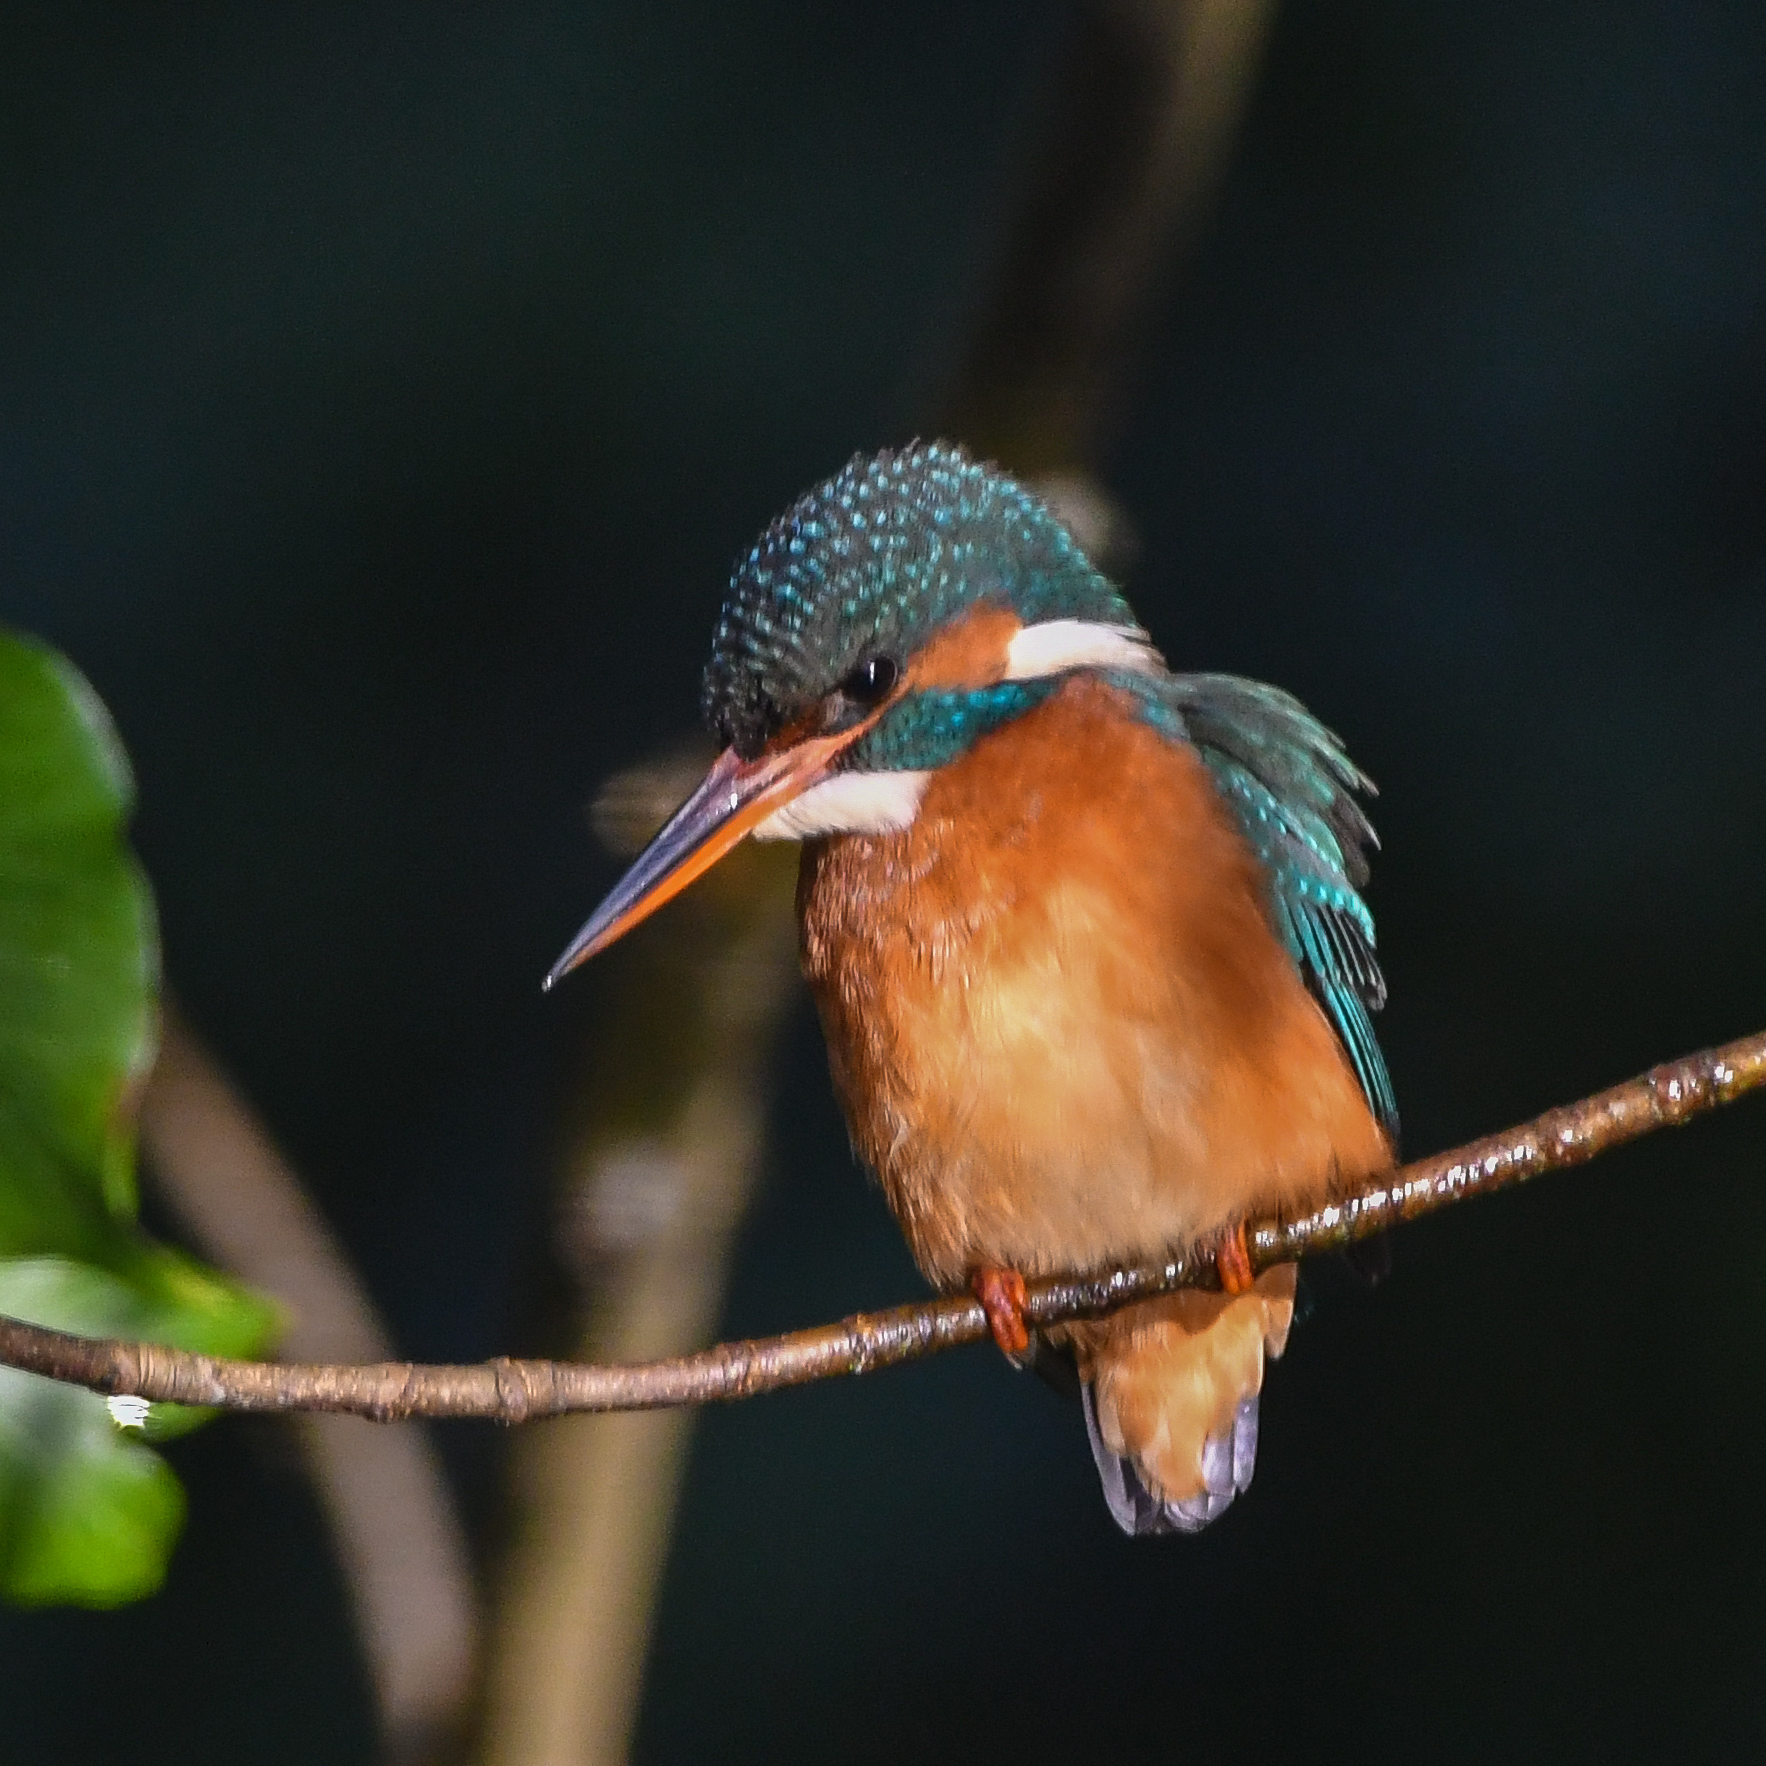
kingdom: Animalia
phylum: Chordata
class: Aves
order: Coraciiformes
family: Alcedinidae
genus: Alcedo
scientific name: Alcedo atthis
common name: Common kingfisher
